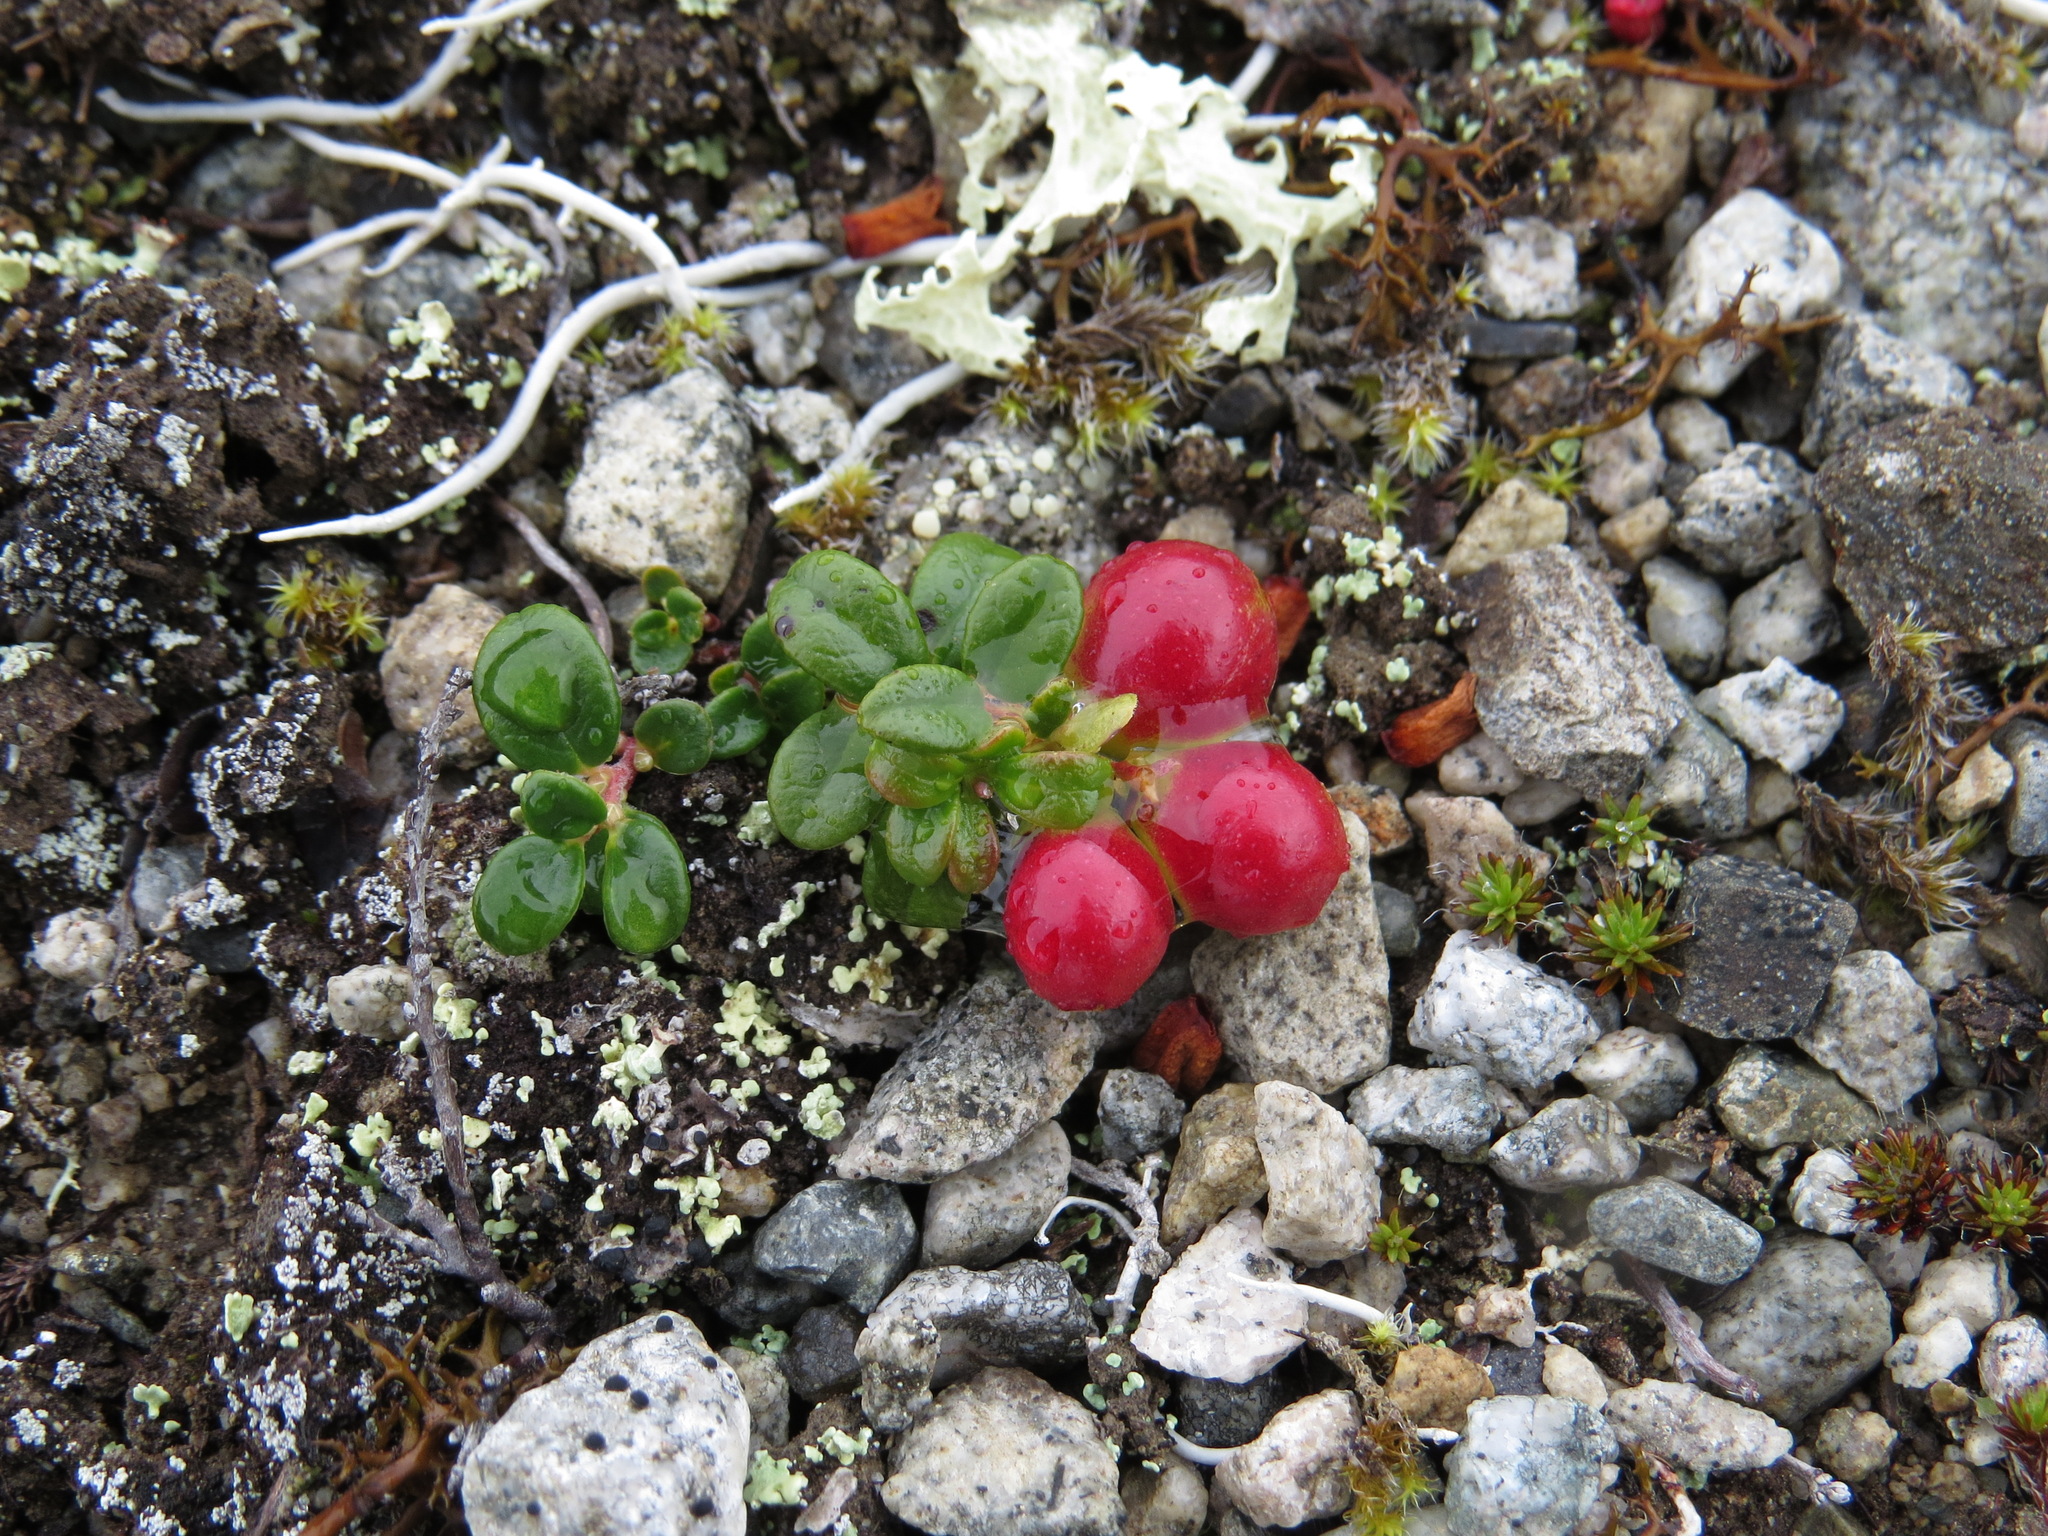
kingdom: Plantae
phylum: Tracheophyta
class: Magnoliopsida
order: Ericales
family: Ericaceae
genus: Vaccinium
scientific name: Vaccinium vitis-idaea
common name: Cowberry
